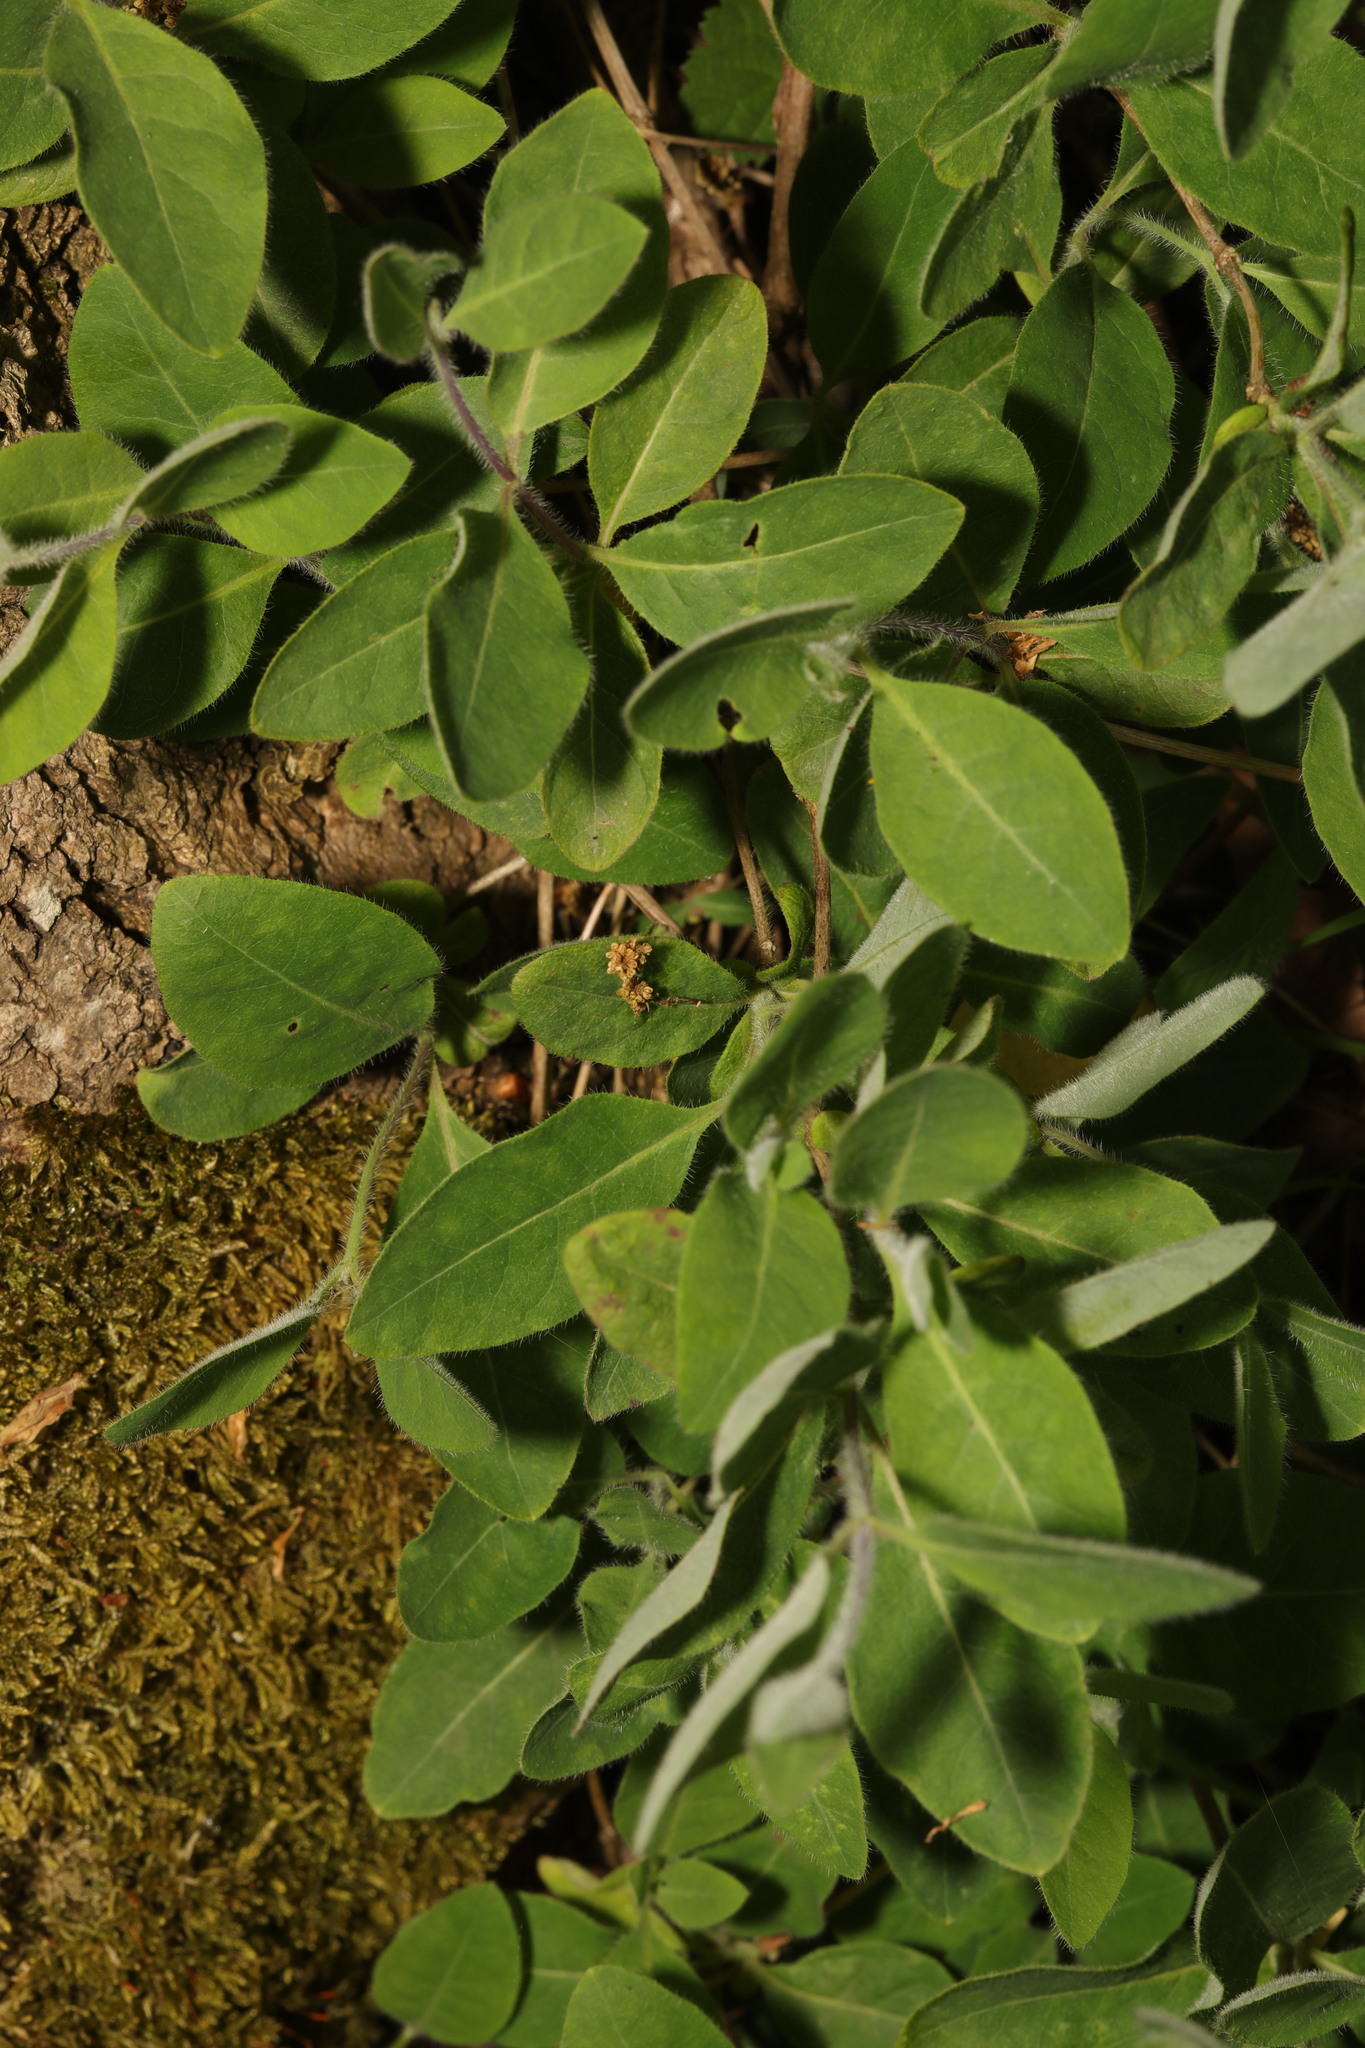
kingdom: Plantae
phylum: Tracheophyta
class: Magnoliopsida
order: Dipsacales
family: Caprifoliaceae
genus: Lonicera
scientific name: Lonicera periclymenum
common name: European honeysuckle
